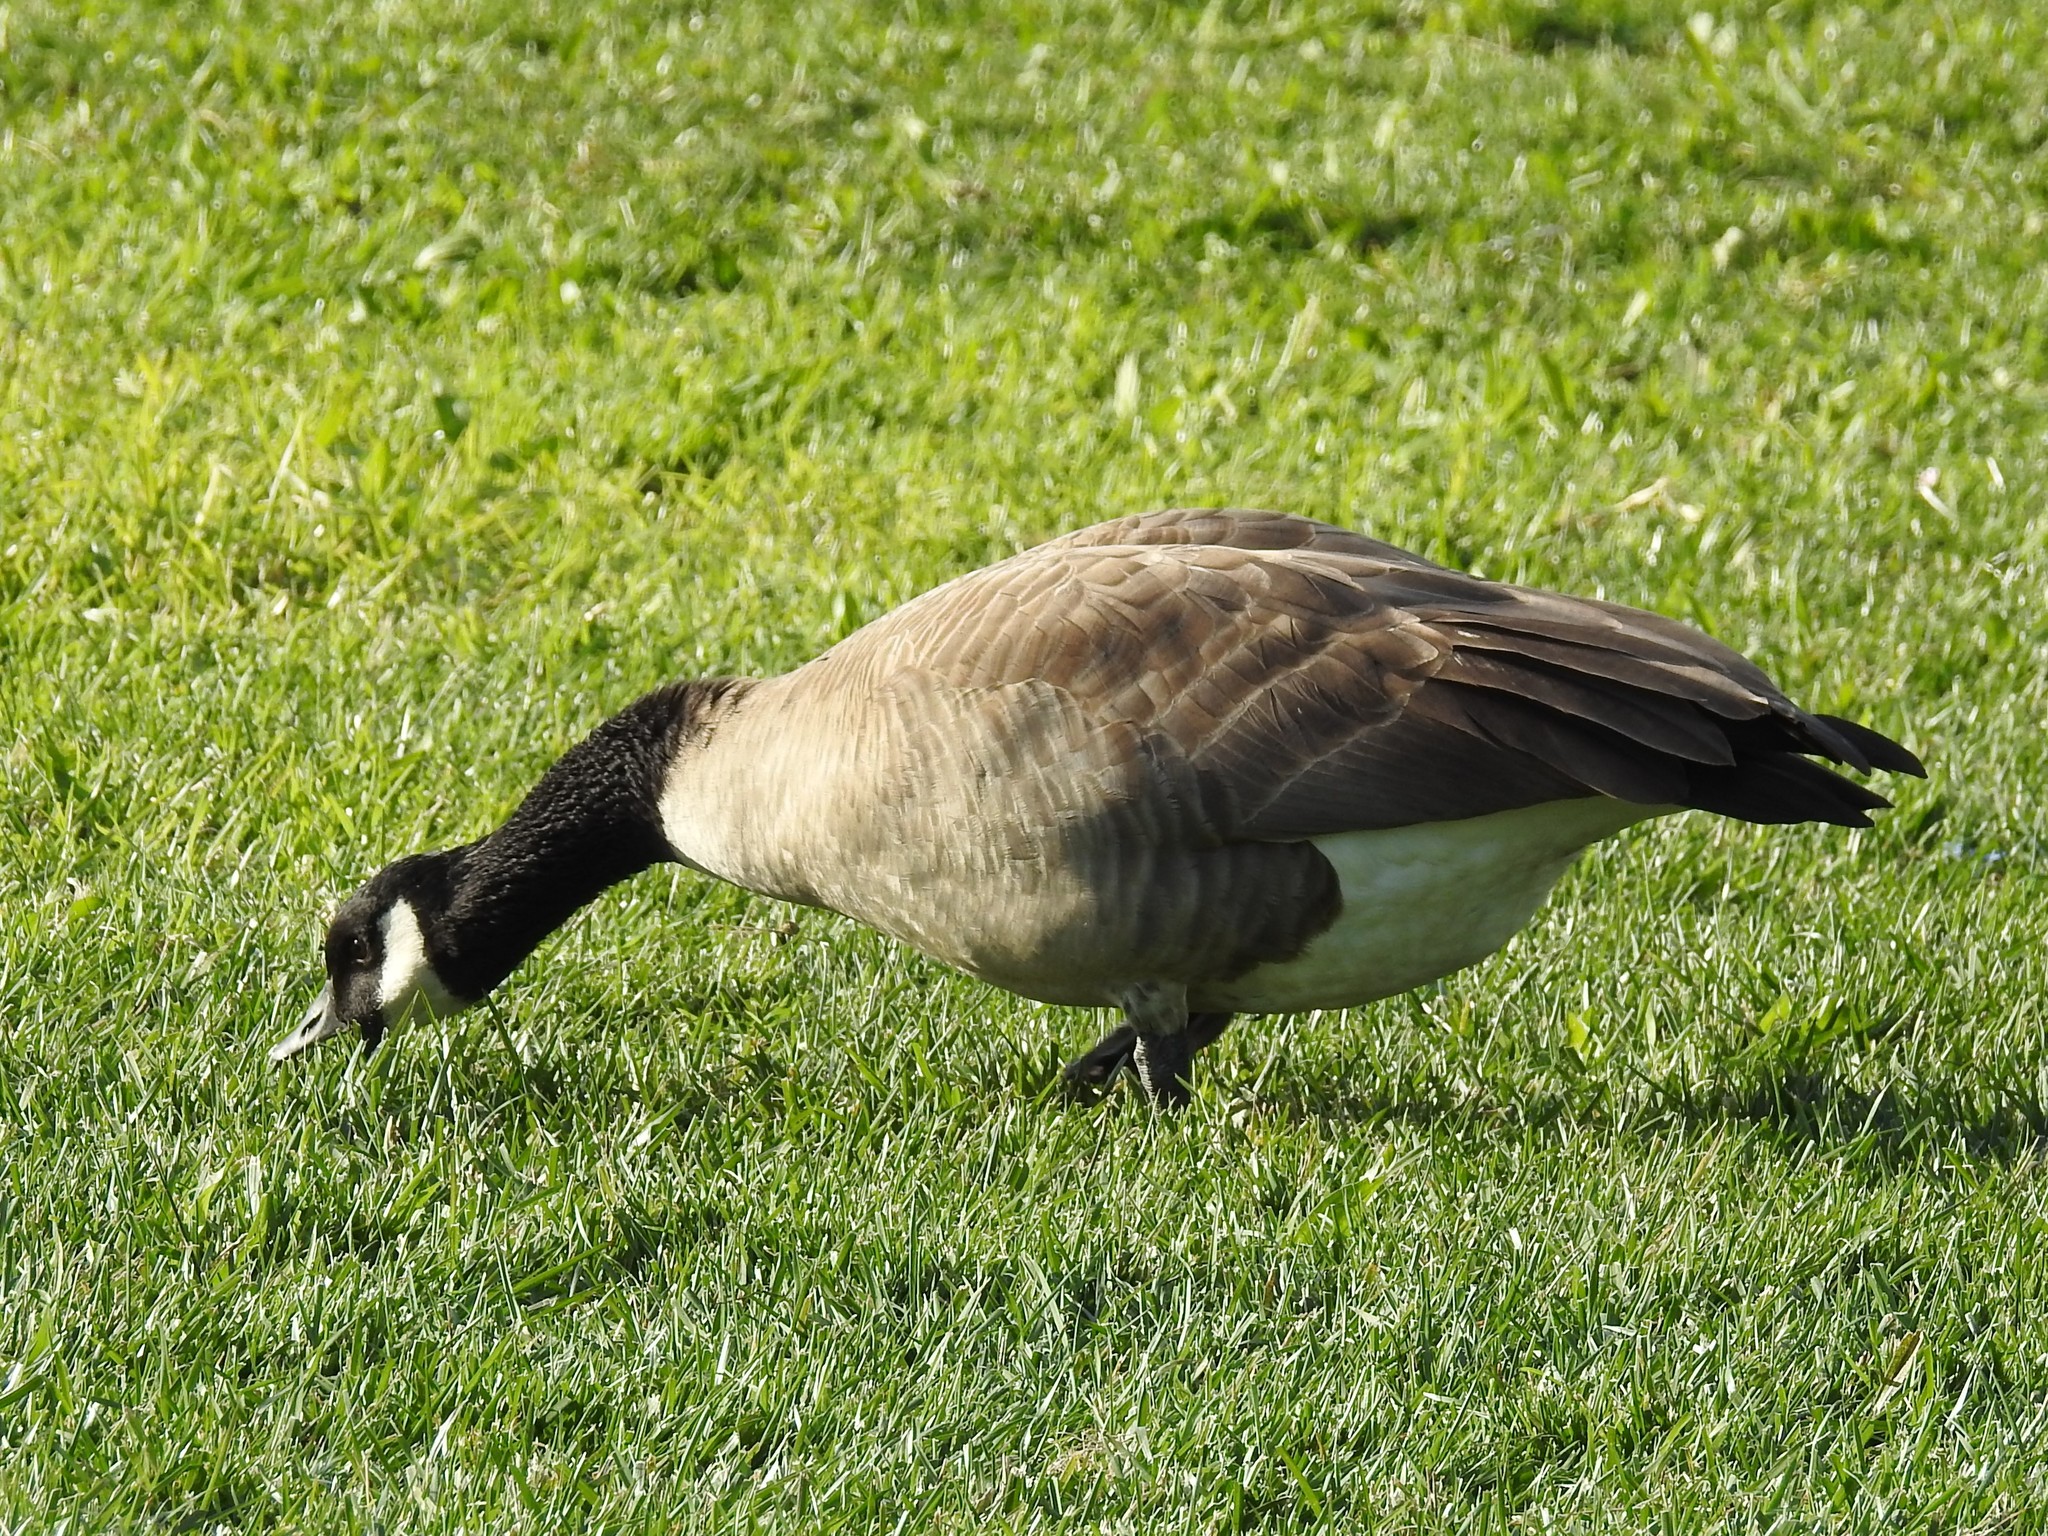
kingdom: Animalia
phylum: Chordata
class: Aves
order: Anseriformes
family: Anatidae
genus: Branta
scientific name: Branta canadensis
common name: Canada goose
